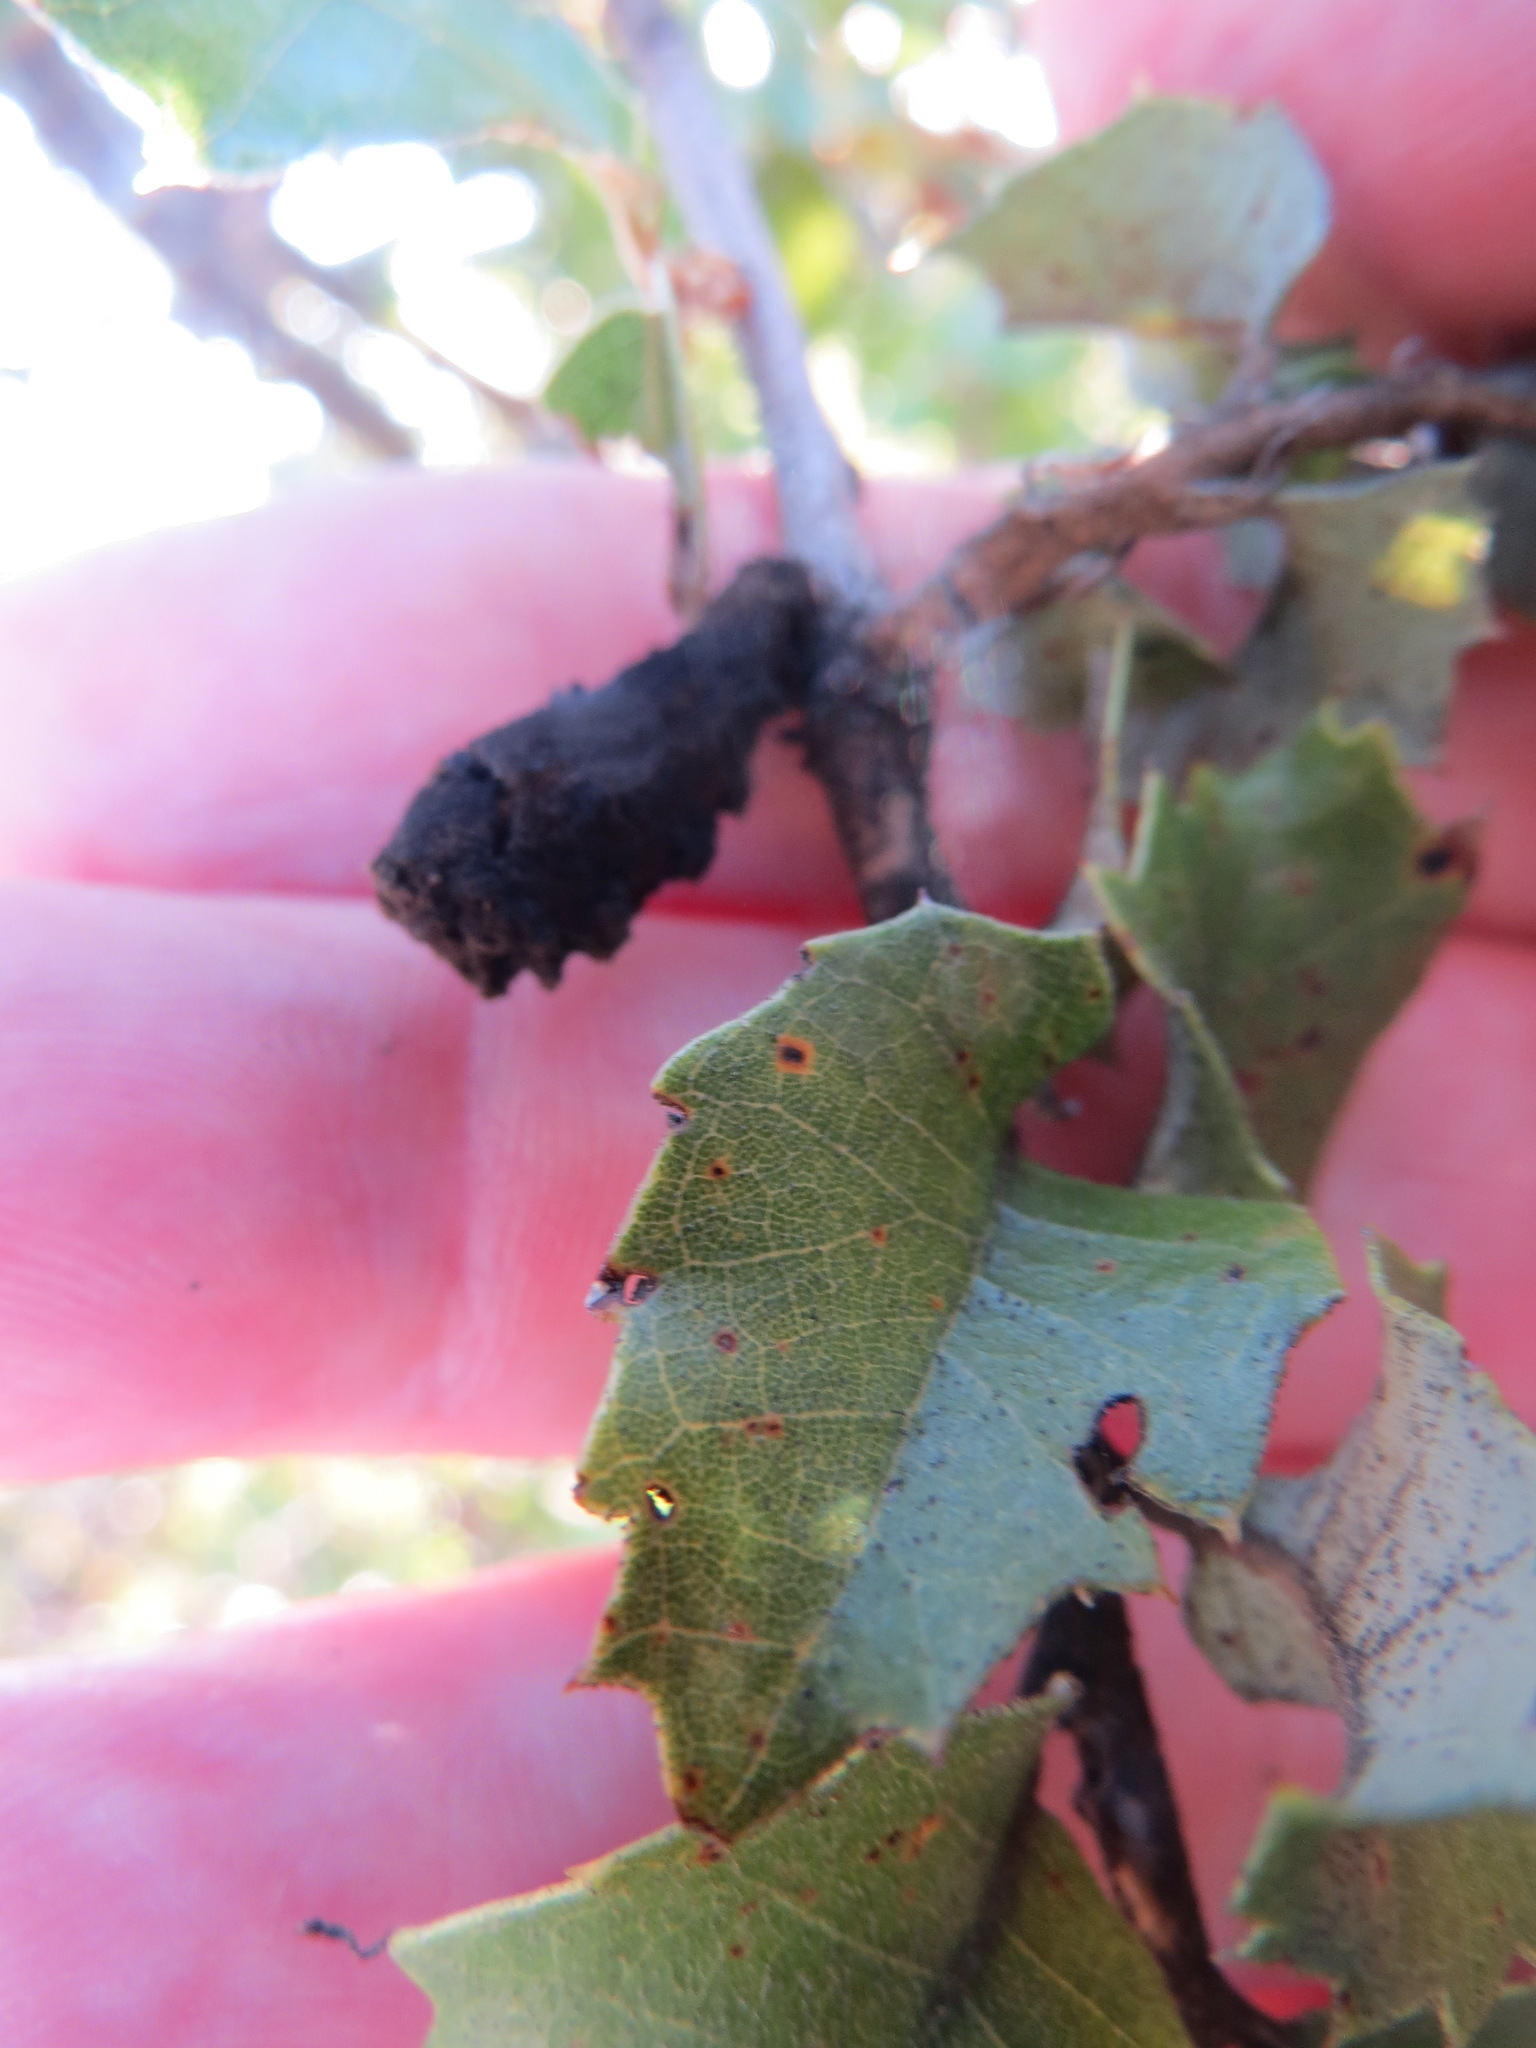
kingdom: Animalia
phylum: Arthropoda
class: Insecta
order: Hymenoptera
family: Cynipidae
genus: Heteroecus
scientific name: Heteroecus
